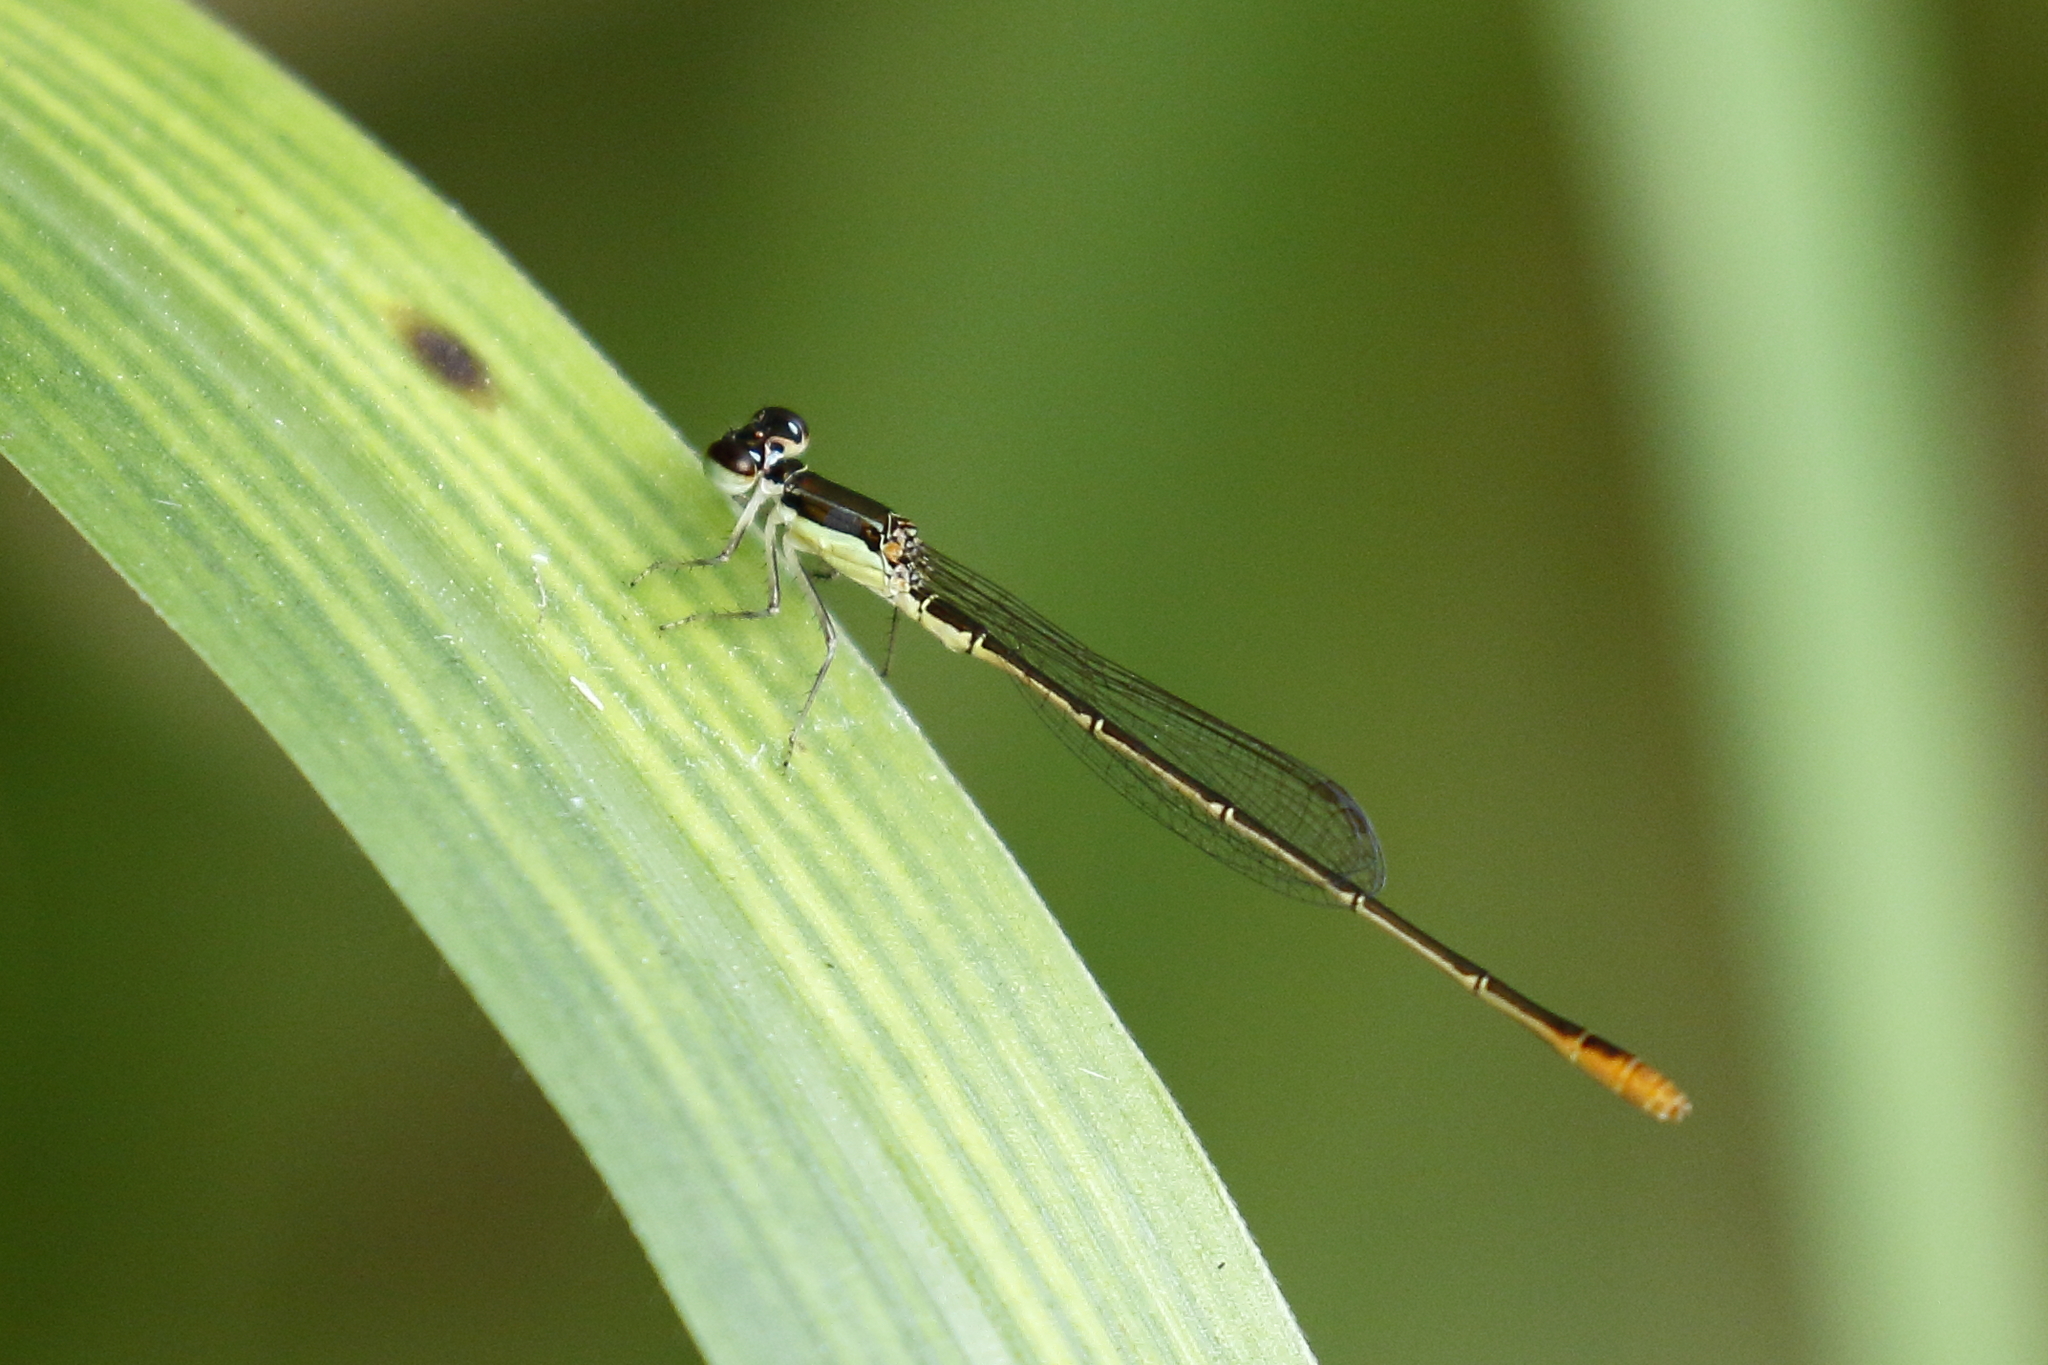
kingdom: Animalia
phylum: Arthropoda
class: Insecta
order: Odonata
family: Coenagrionidae
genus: Agriocnemis
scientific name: Agriocnemis pygmaea
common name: Pygmy wisp
